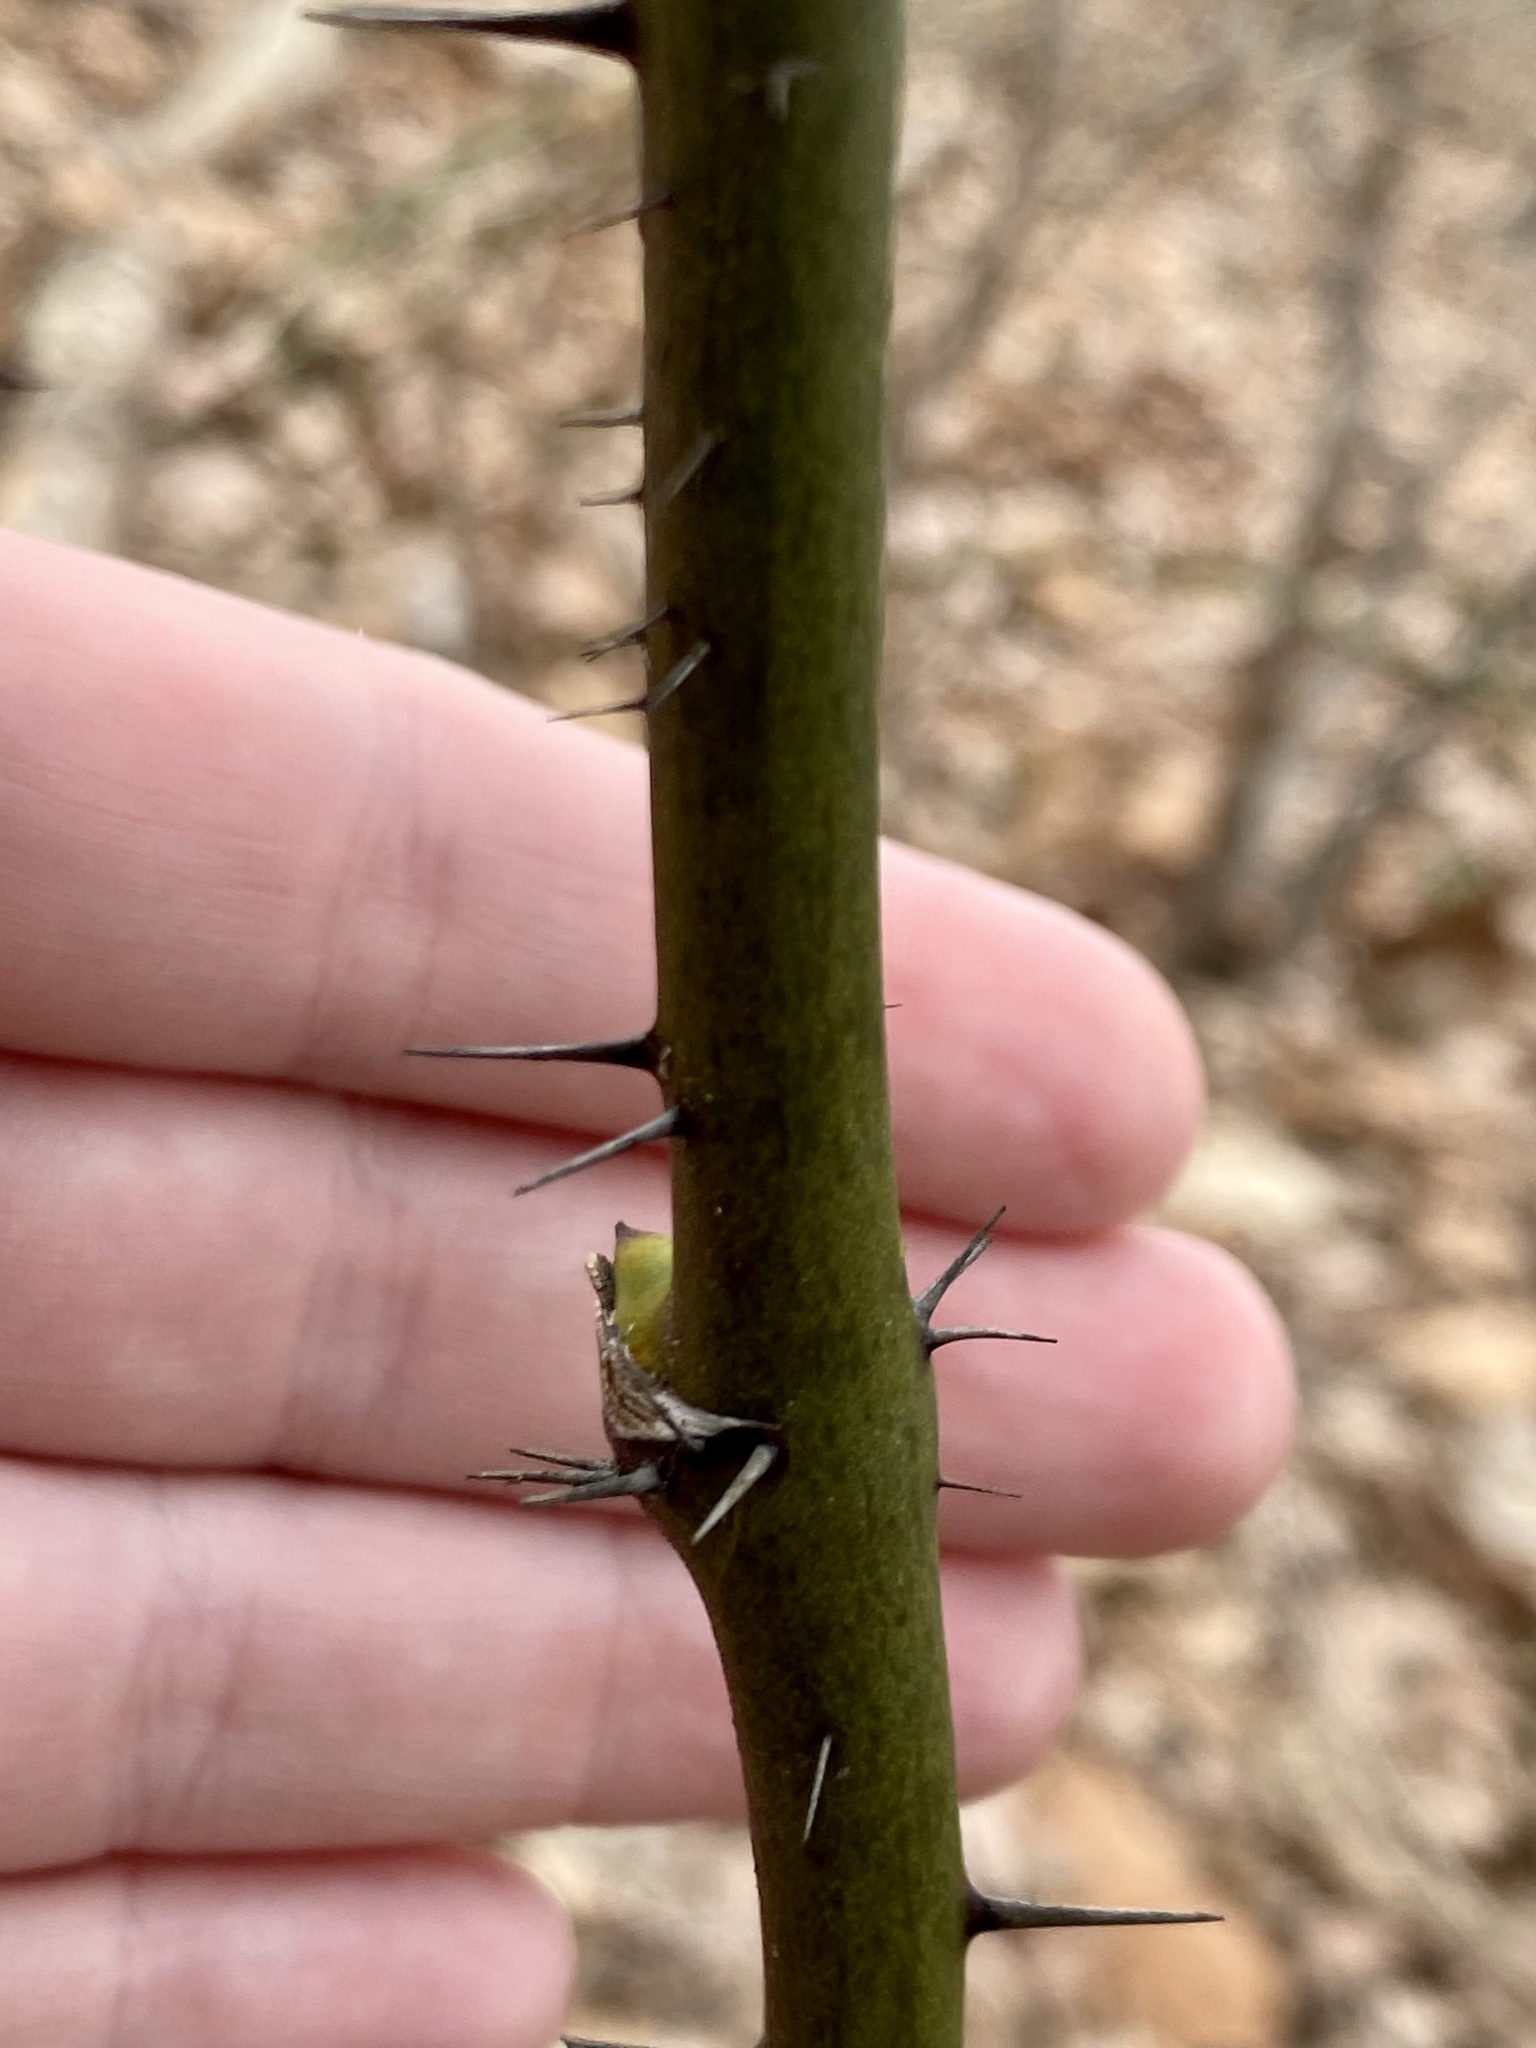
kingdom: Plantae
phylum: Tracheophyta
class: Liliopsida
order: Liliales
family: Smilacaceae
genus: Smilax
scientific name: Smilax tamnoides
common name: Hellfetter
